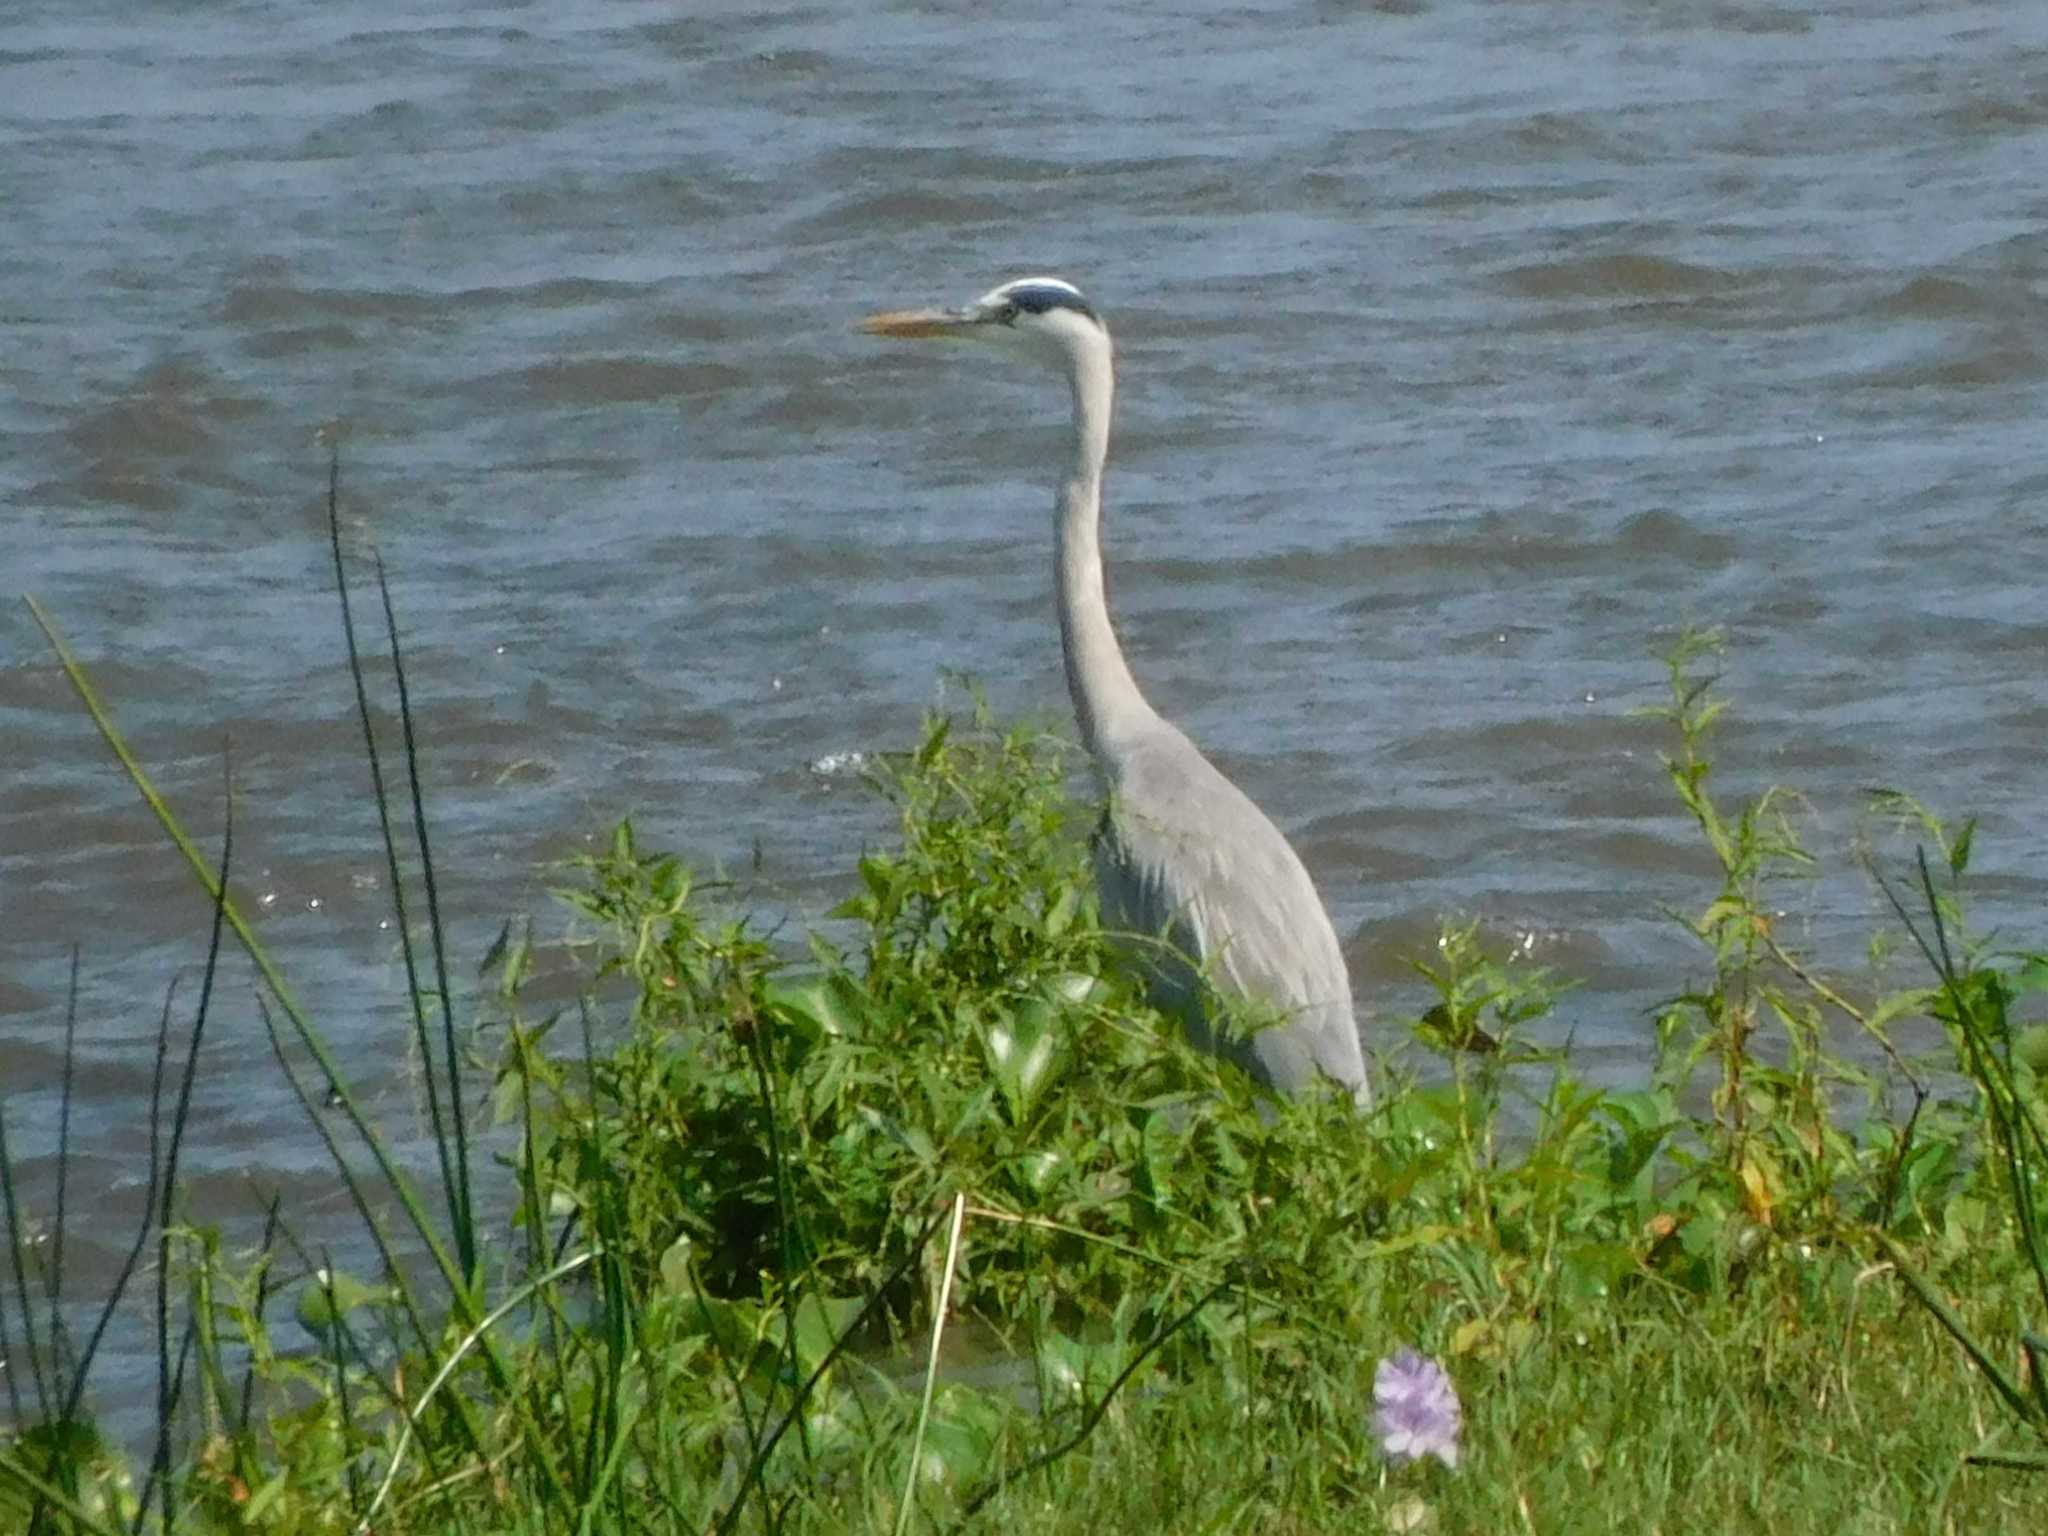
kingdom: Animalia
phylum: Chordata
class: Aves
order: Pelecaniformes
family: Ardeidae
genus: Ardea
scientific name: Ardea cinerea
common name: Grey heron
